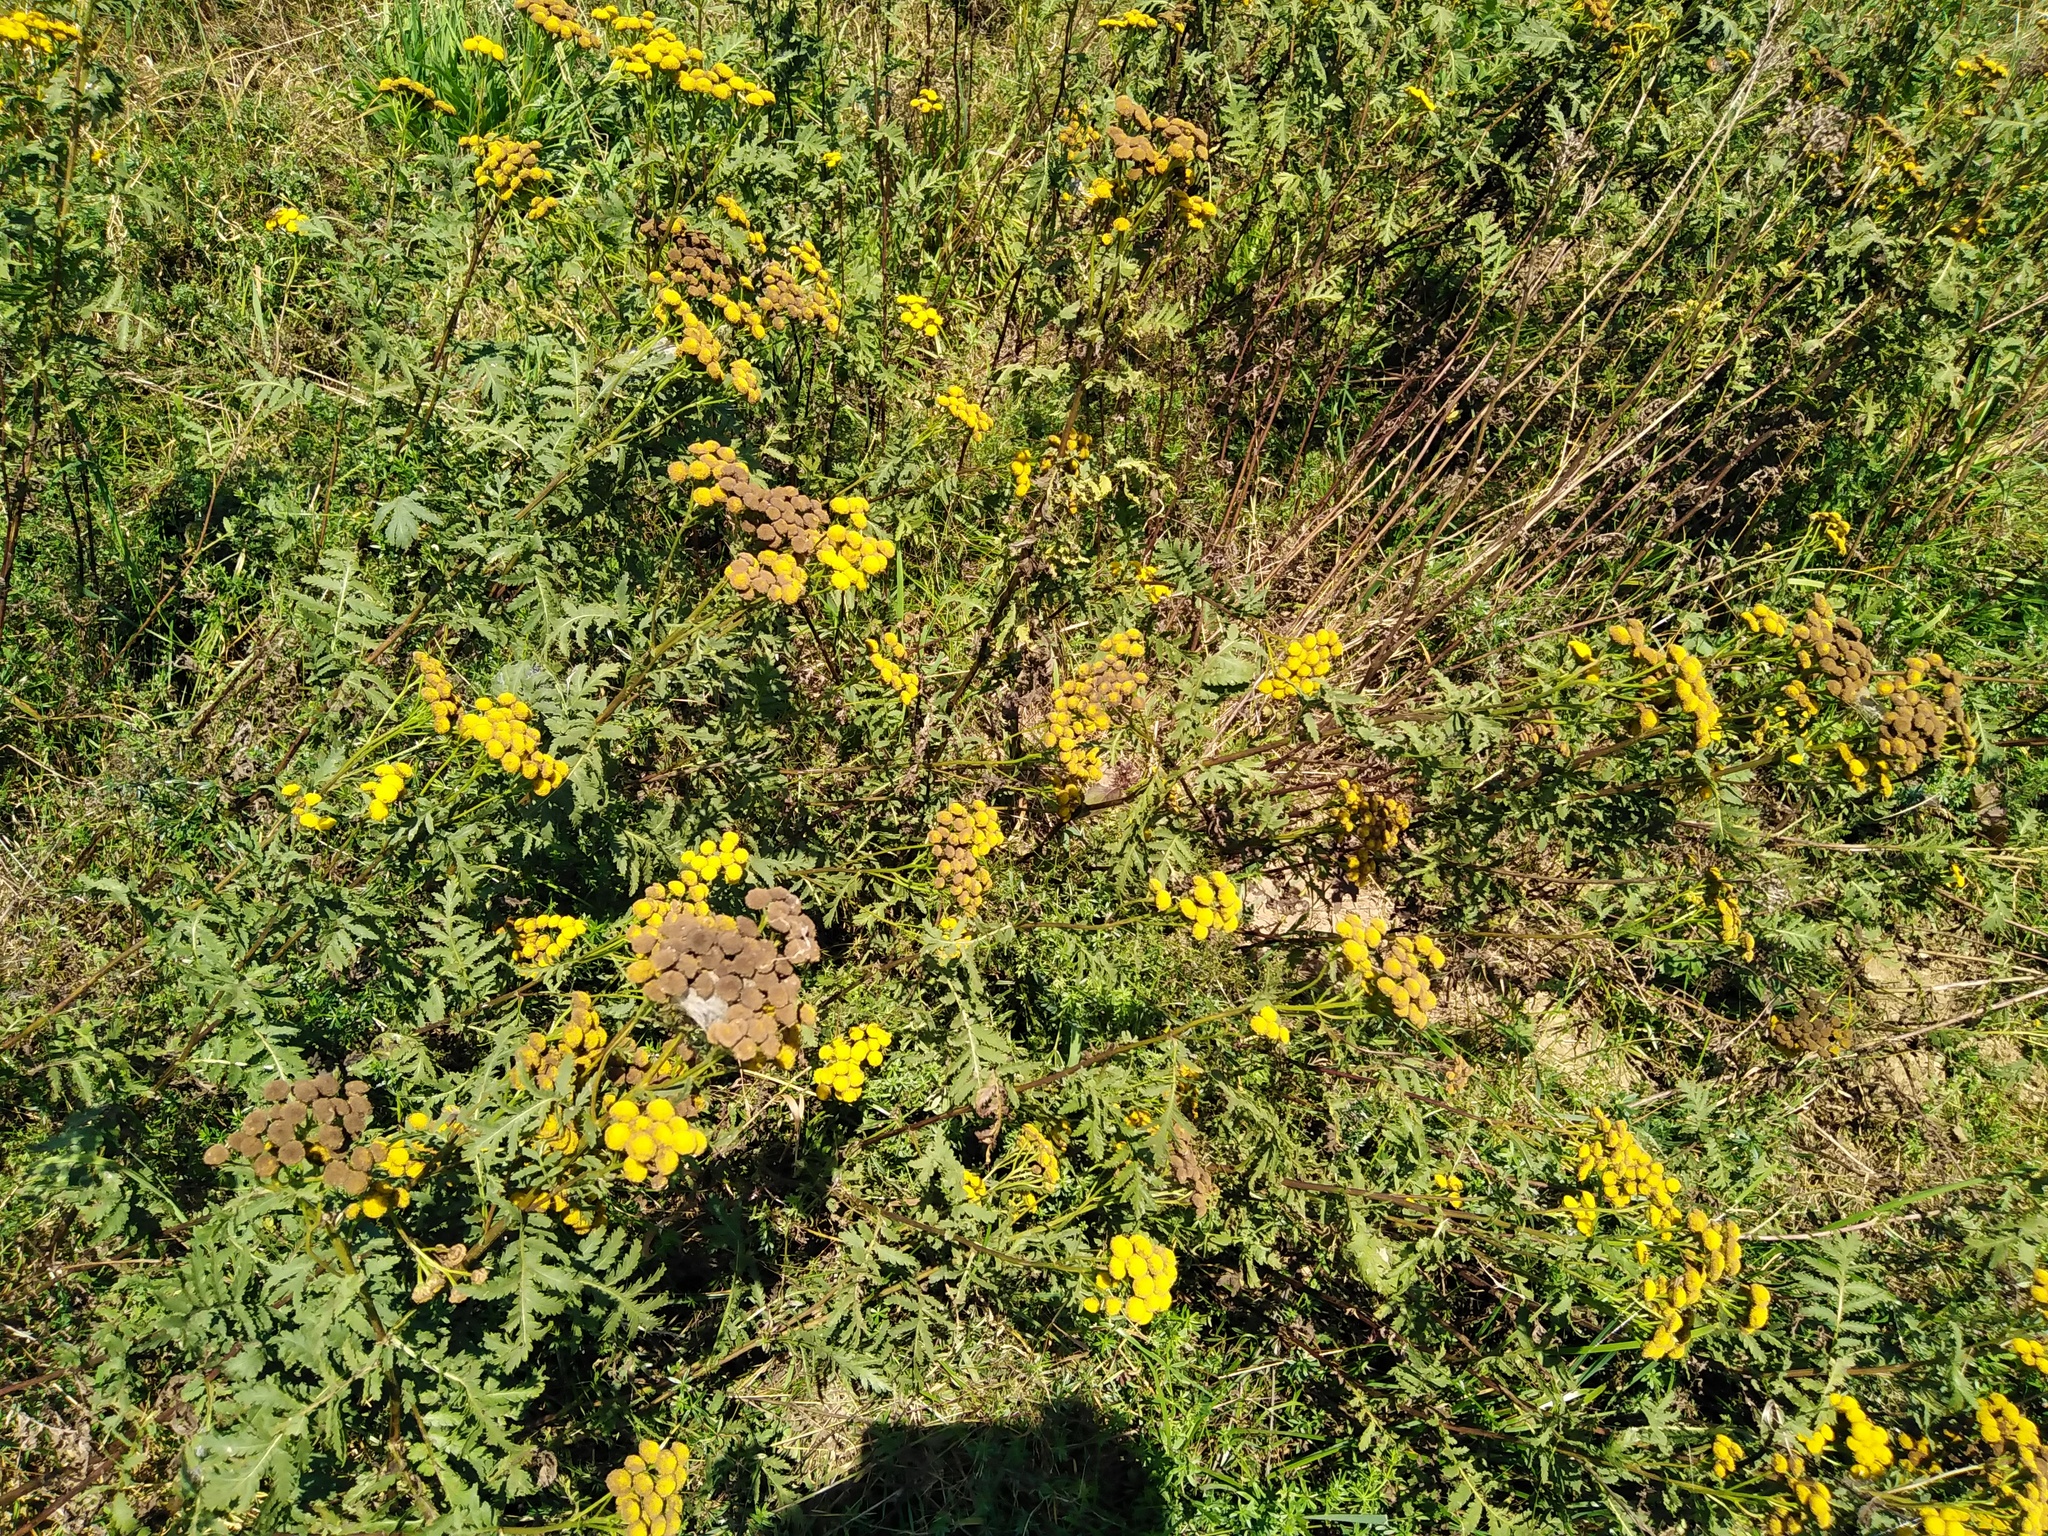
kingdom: Plantae
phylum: Tracheophyta
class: Magnoliopsida
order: Asterales
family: Asteraceae
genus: Tanacetum
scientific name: Tanacetum vulgare
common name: Common tansy
